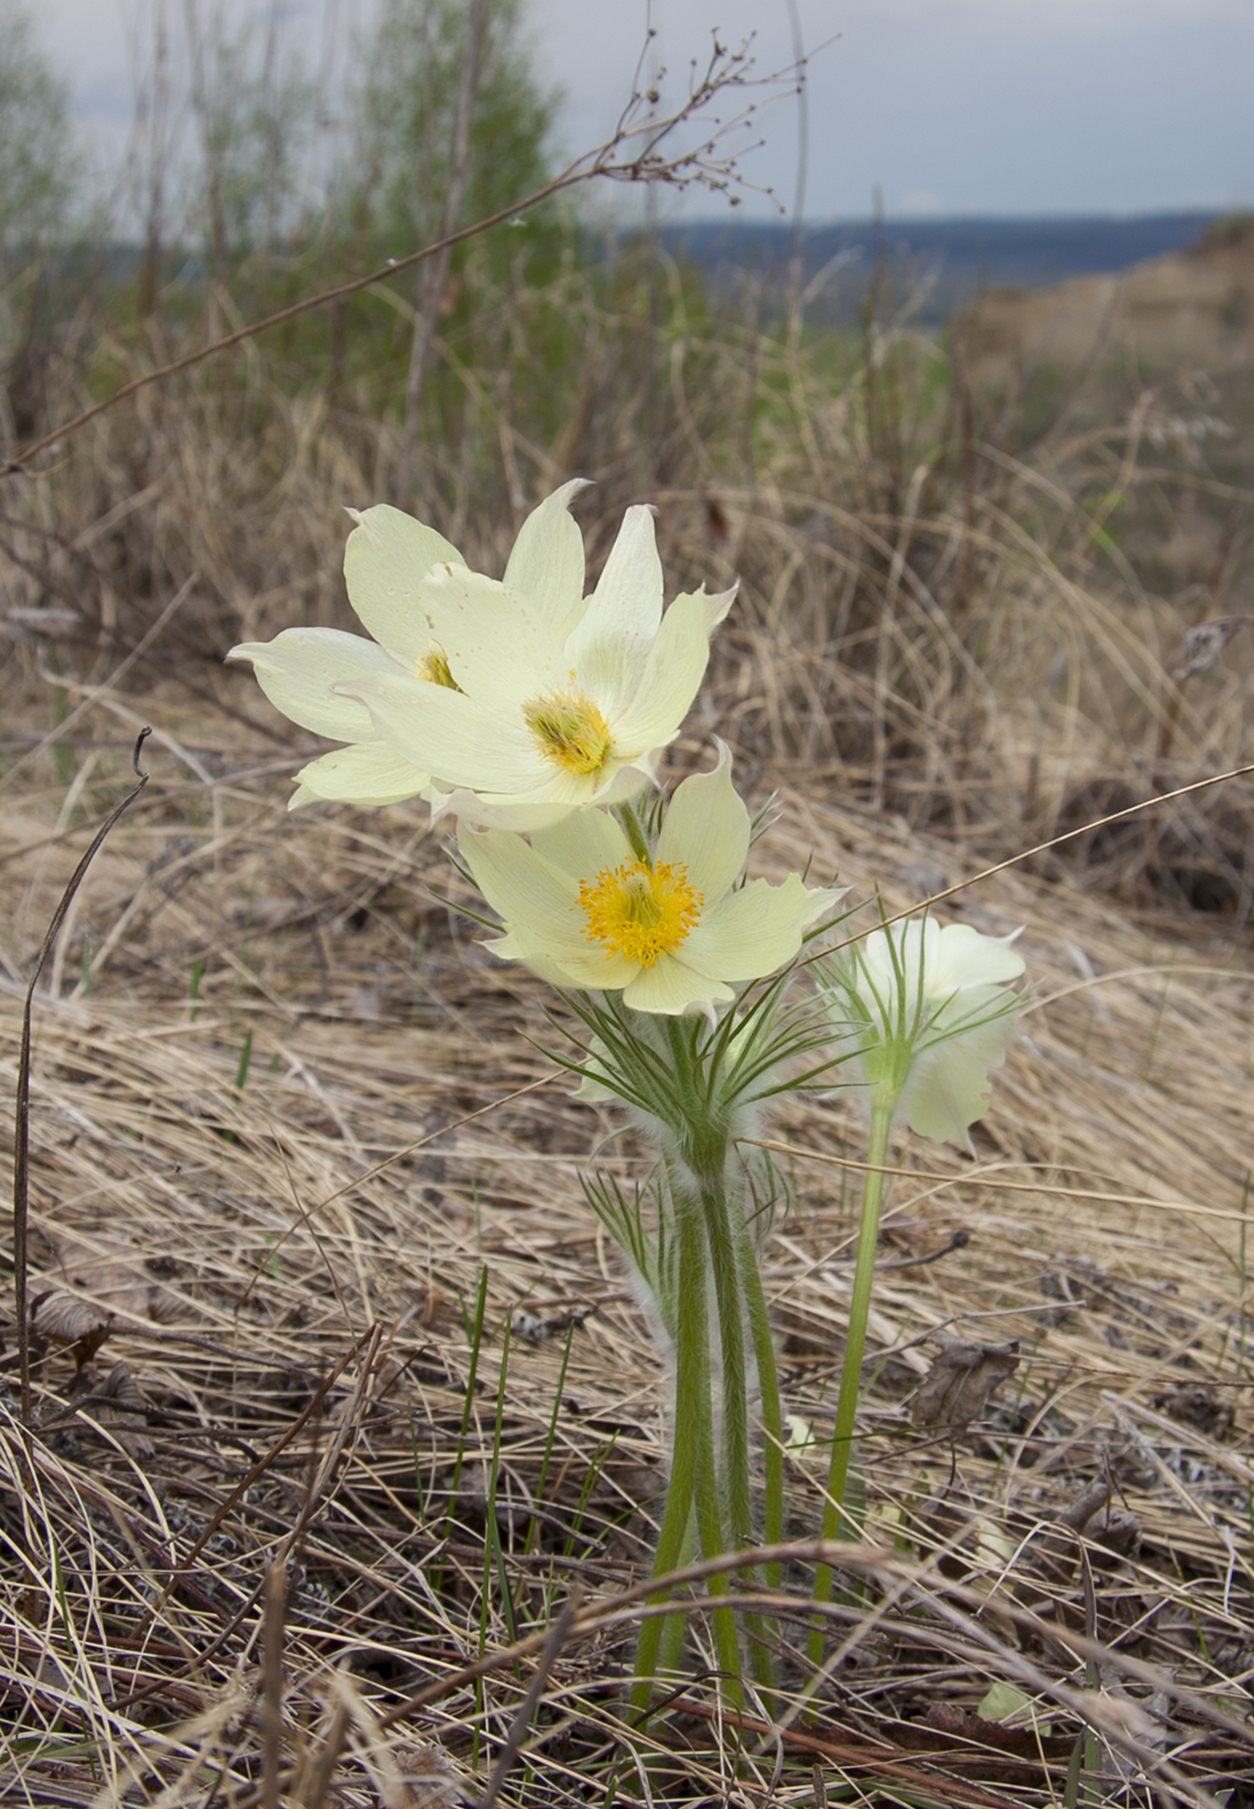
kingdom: Plantae
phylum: Tracheophyta
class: Magnoliopsida
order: Ranunculales
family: Ranunculaceae
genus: Pulsatilla
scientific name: Pulsatilla patens
